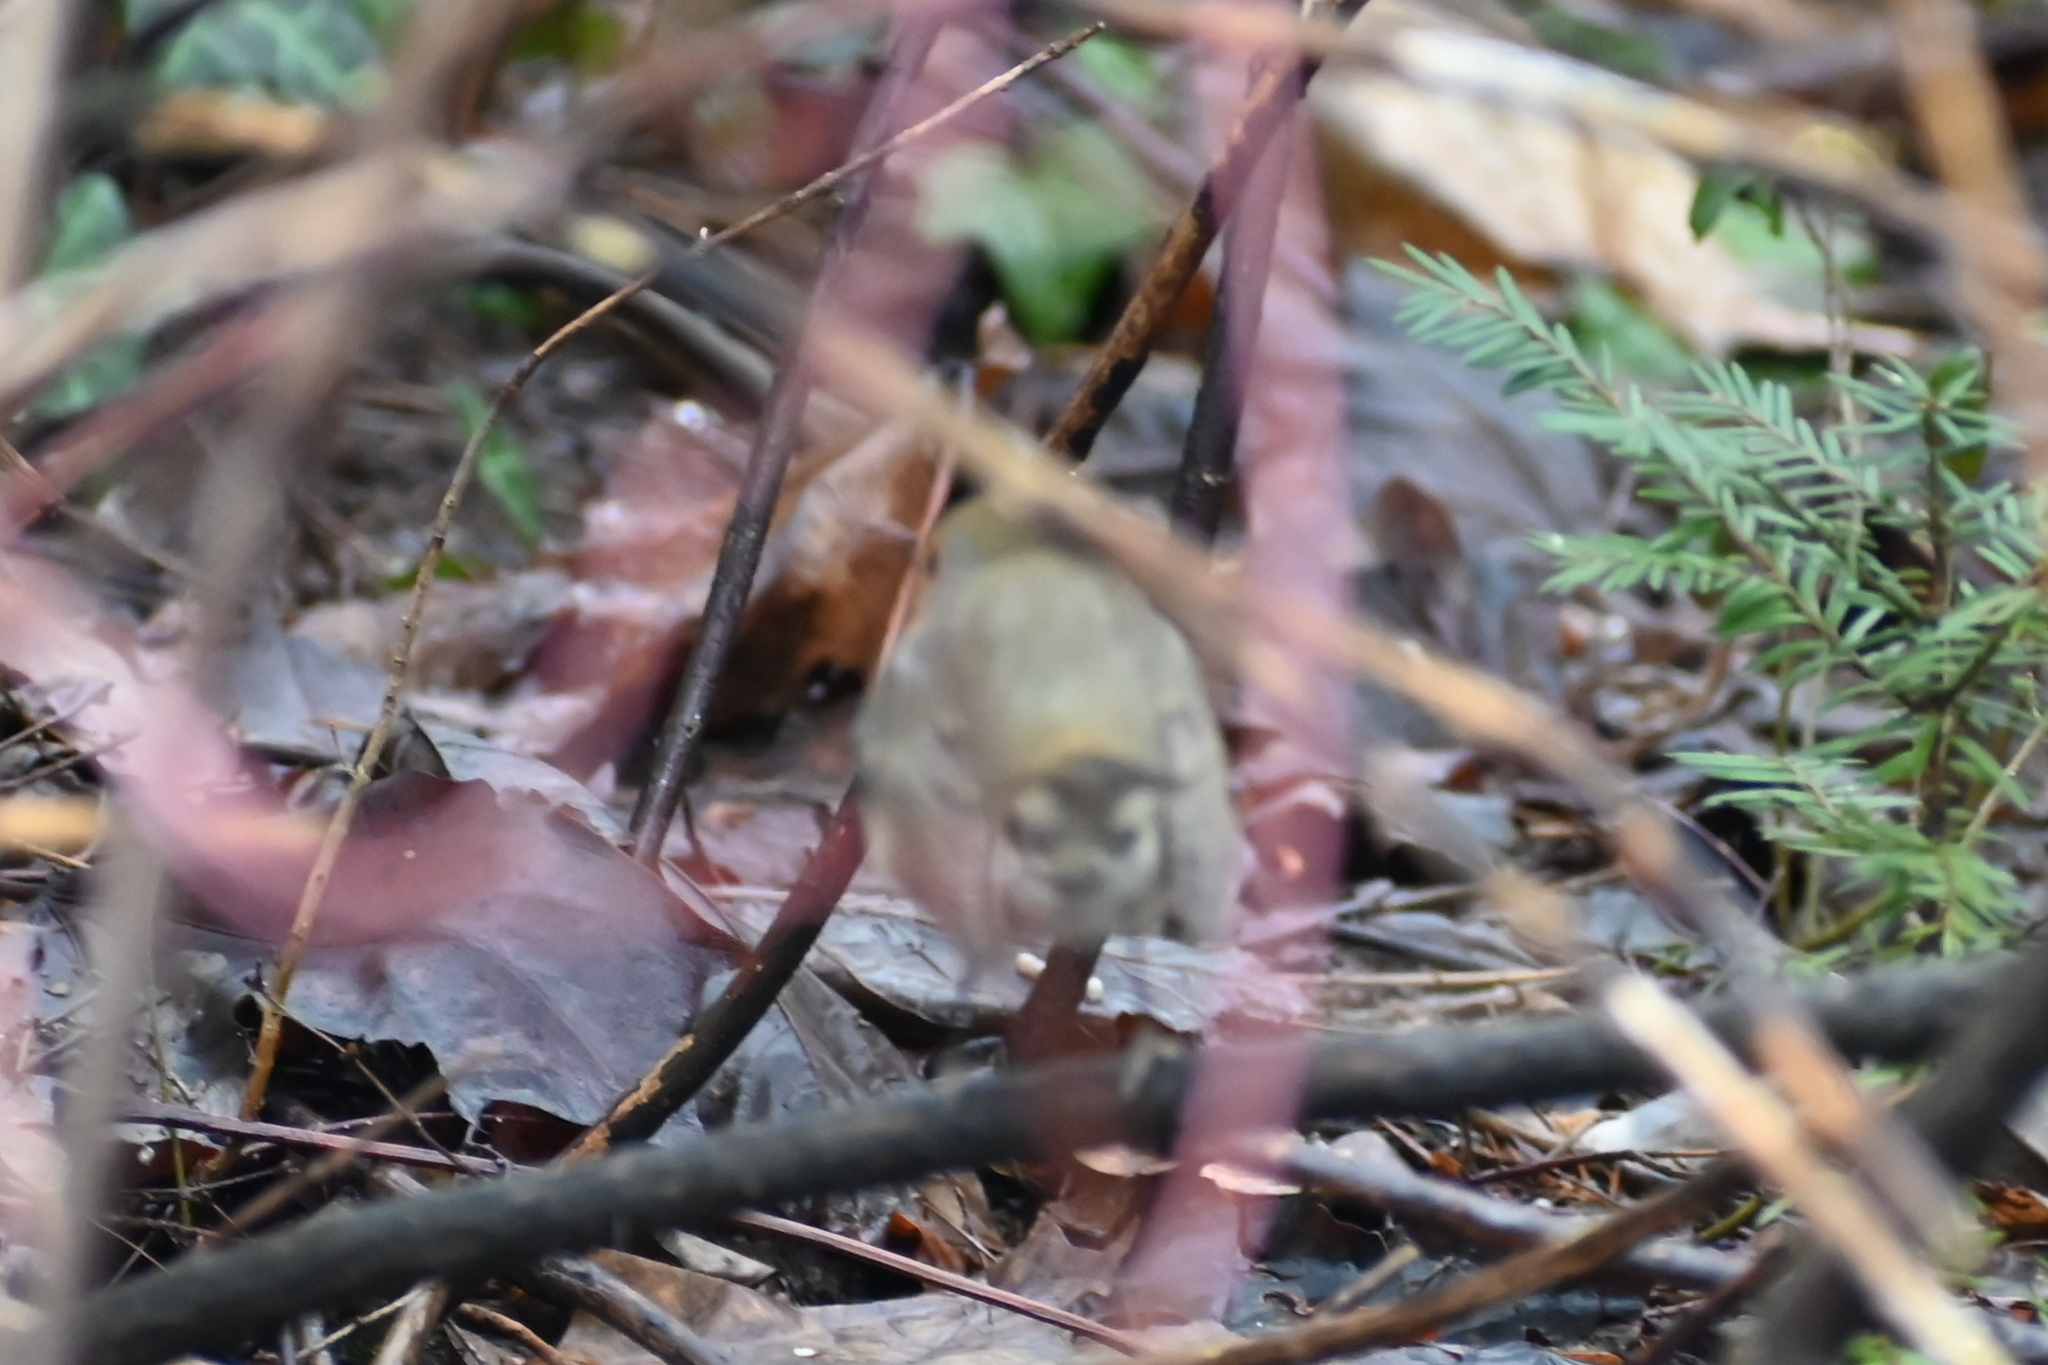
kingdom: Animalia
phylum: Chordata
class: Aves
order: Passeriformes
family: Muscicapidae
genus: Erithacus
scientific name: Erithacus rubecula
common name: European robin
